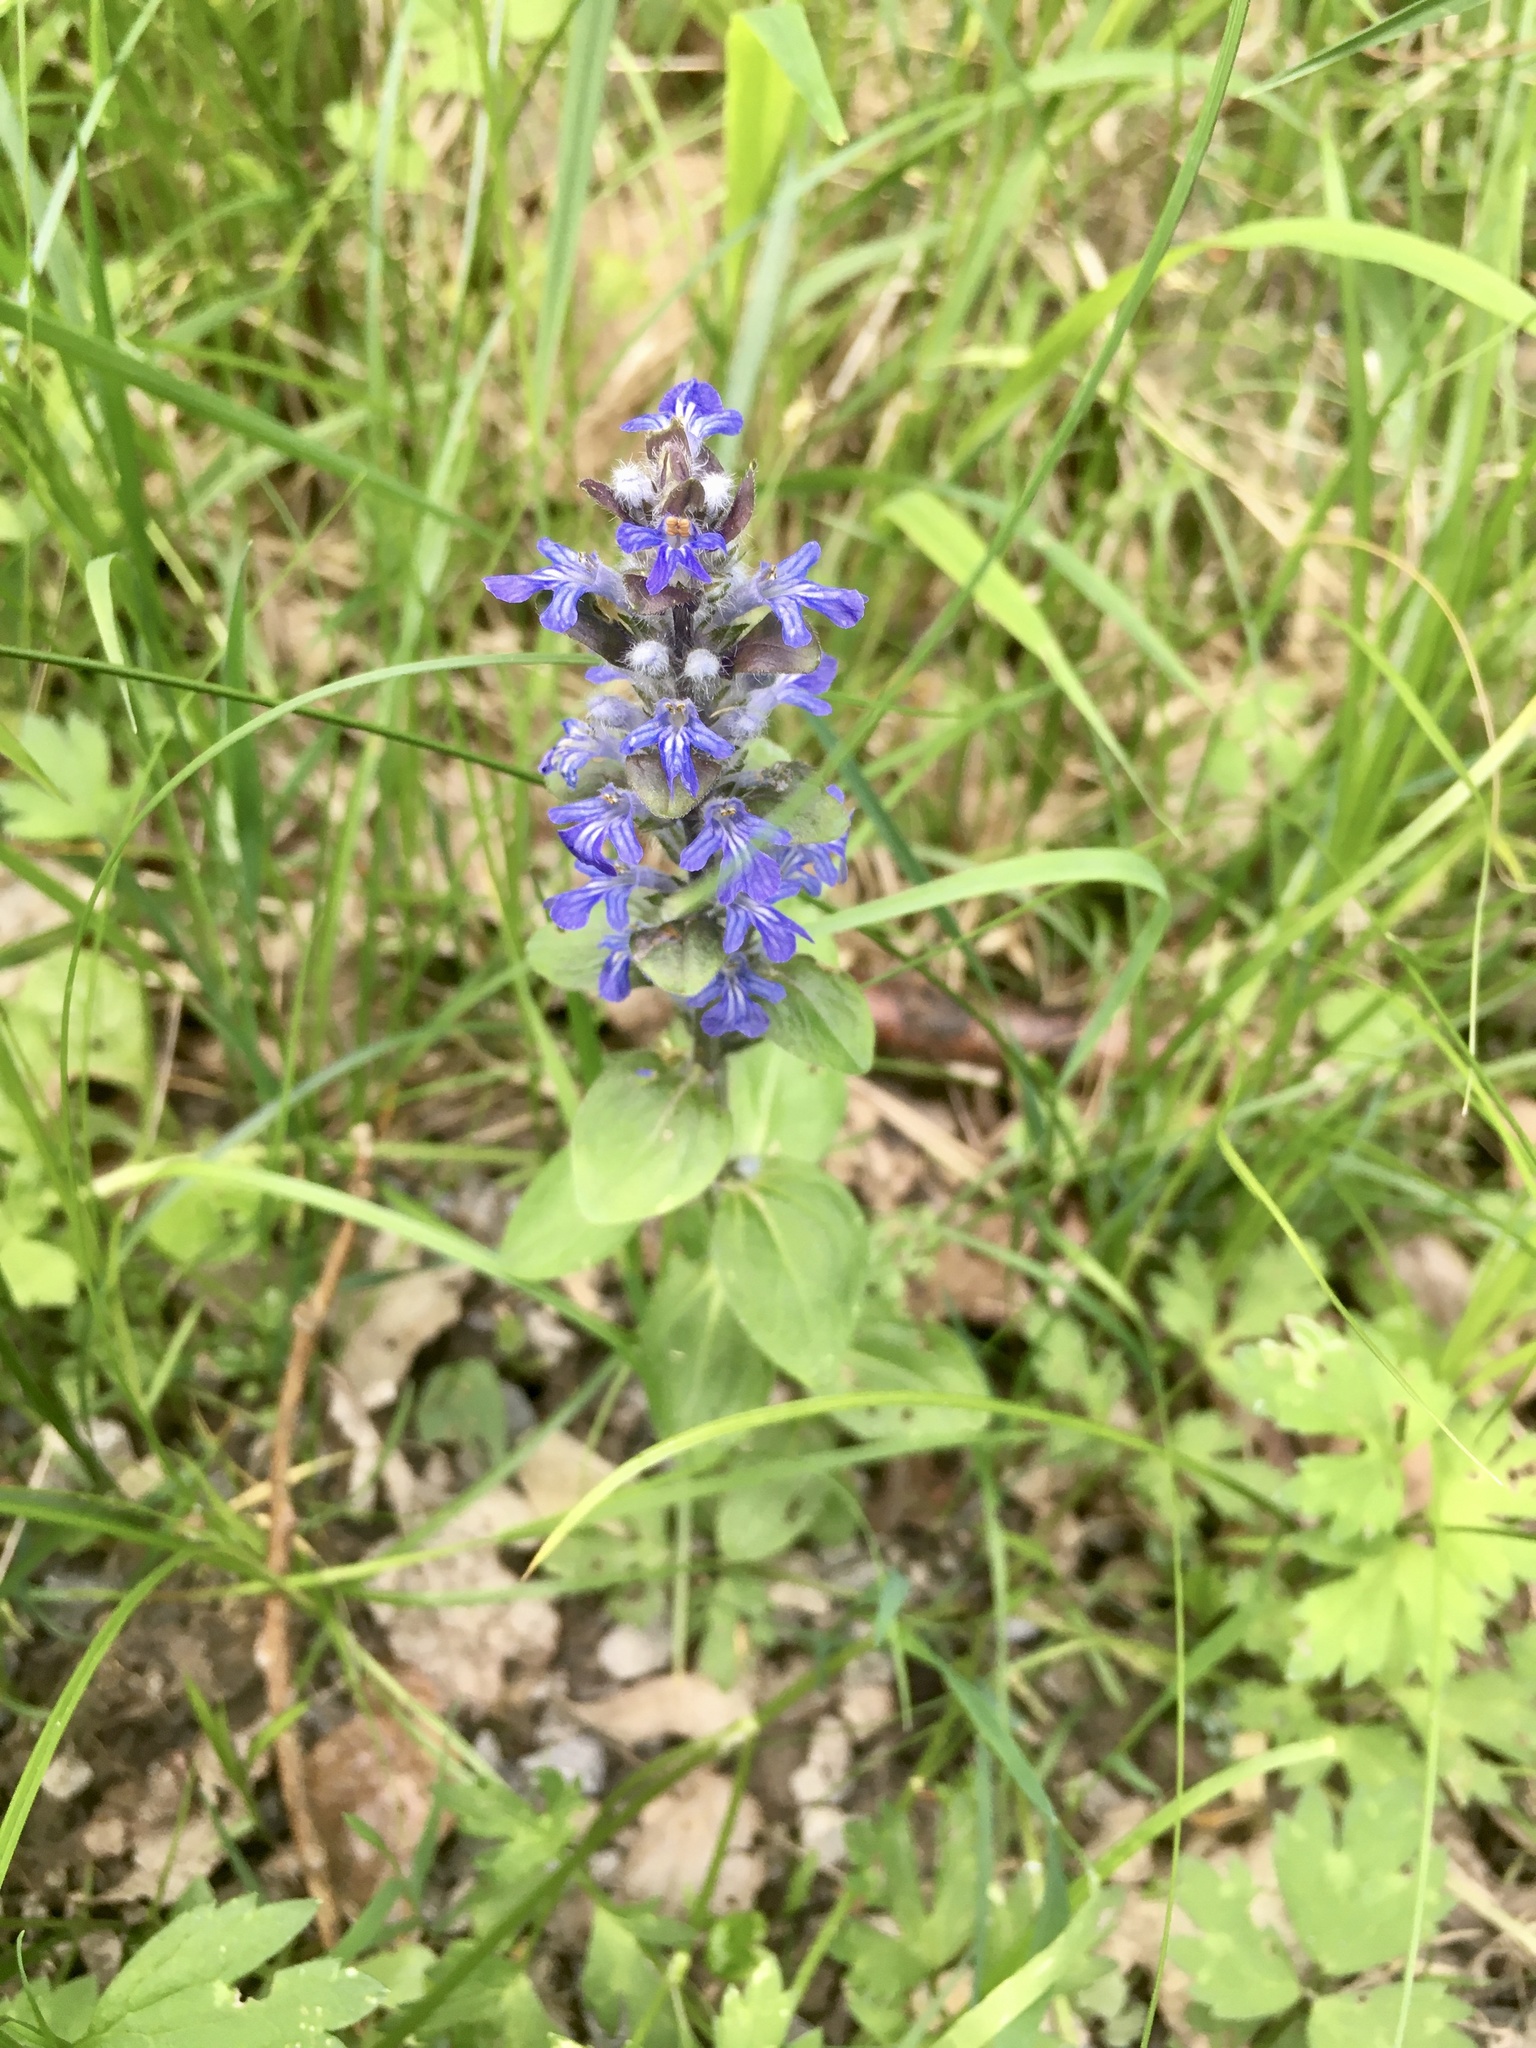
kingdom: Plantae
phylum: Tracheophyta
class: Magnoliopsida
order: Lamiales
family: Lamiaceae
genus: Ajuga
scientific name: Ajuga reptans
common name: Bugle
